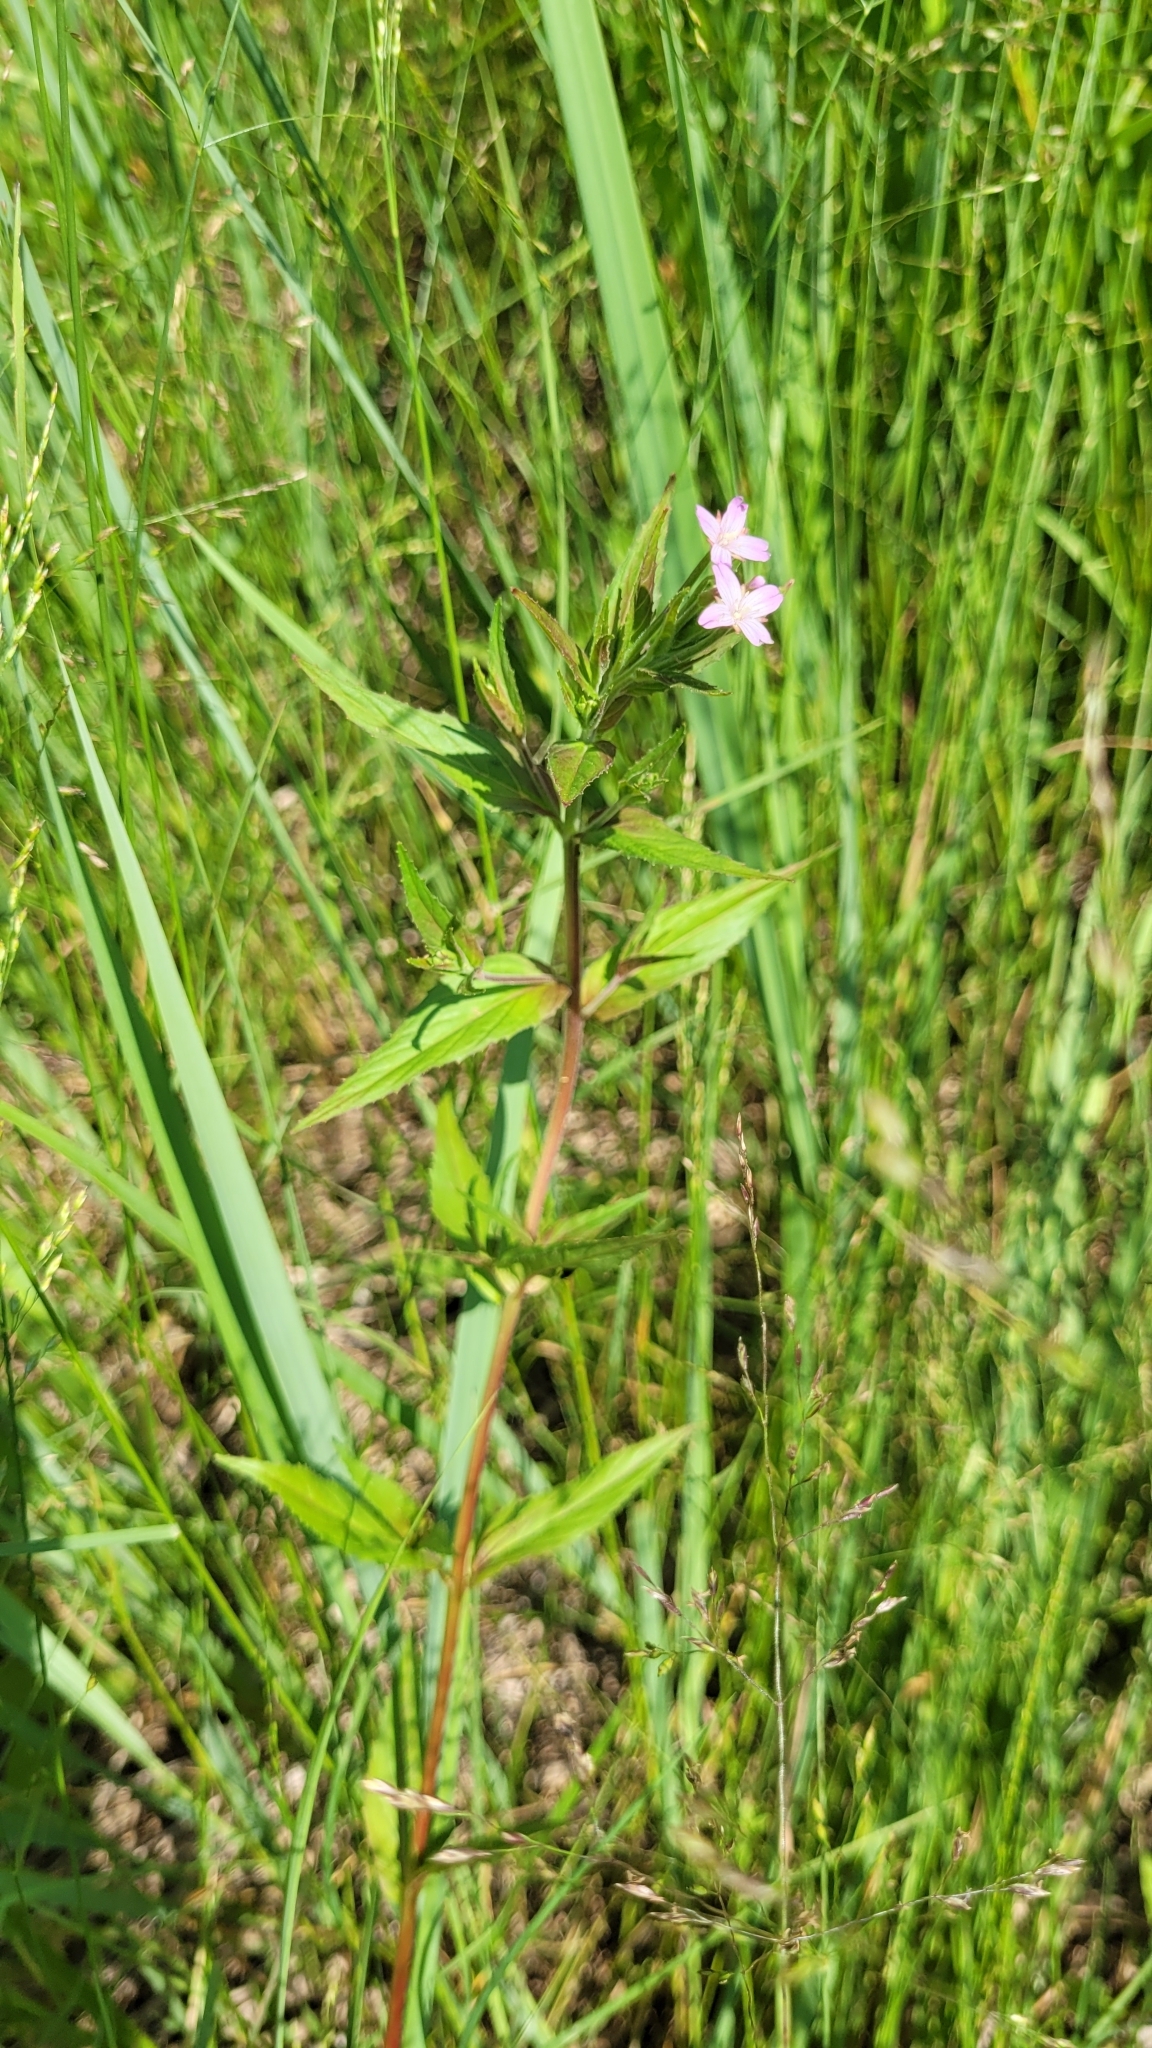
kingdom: Plantae
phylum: Tracheophyta
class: Magnoliopsida
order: Myrtales
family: Onagraceae
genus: Epilobium
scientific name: Epilobium ciliatum
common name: American willowherb
